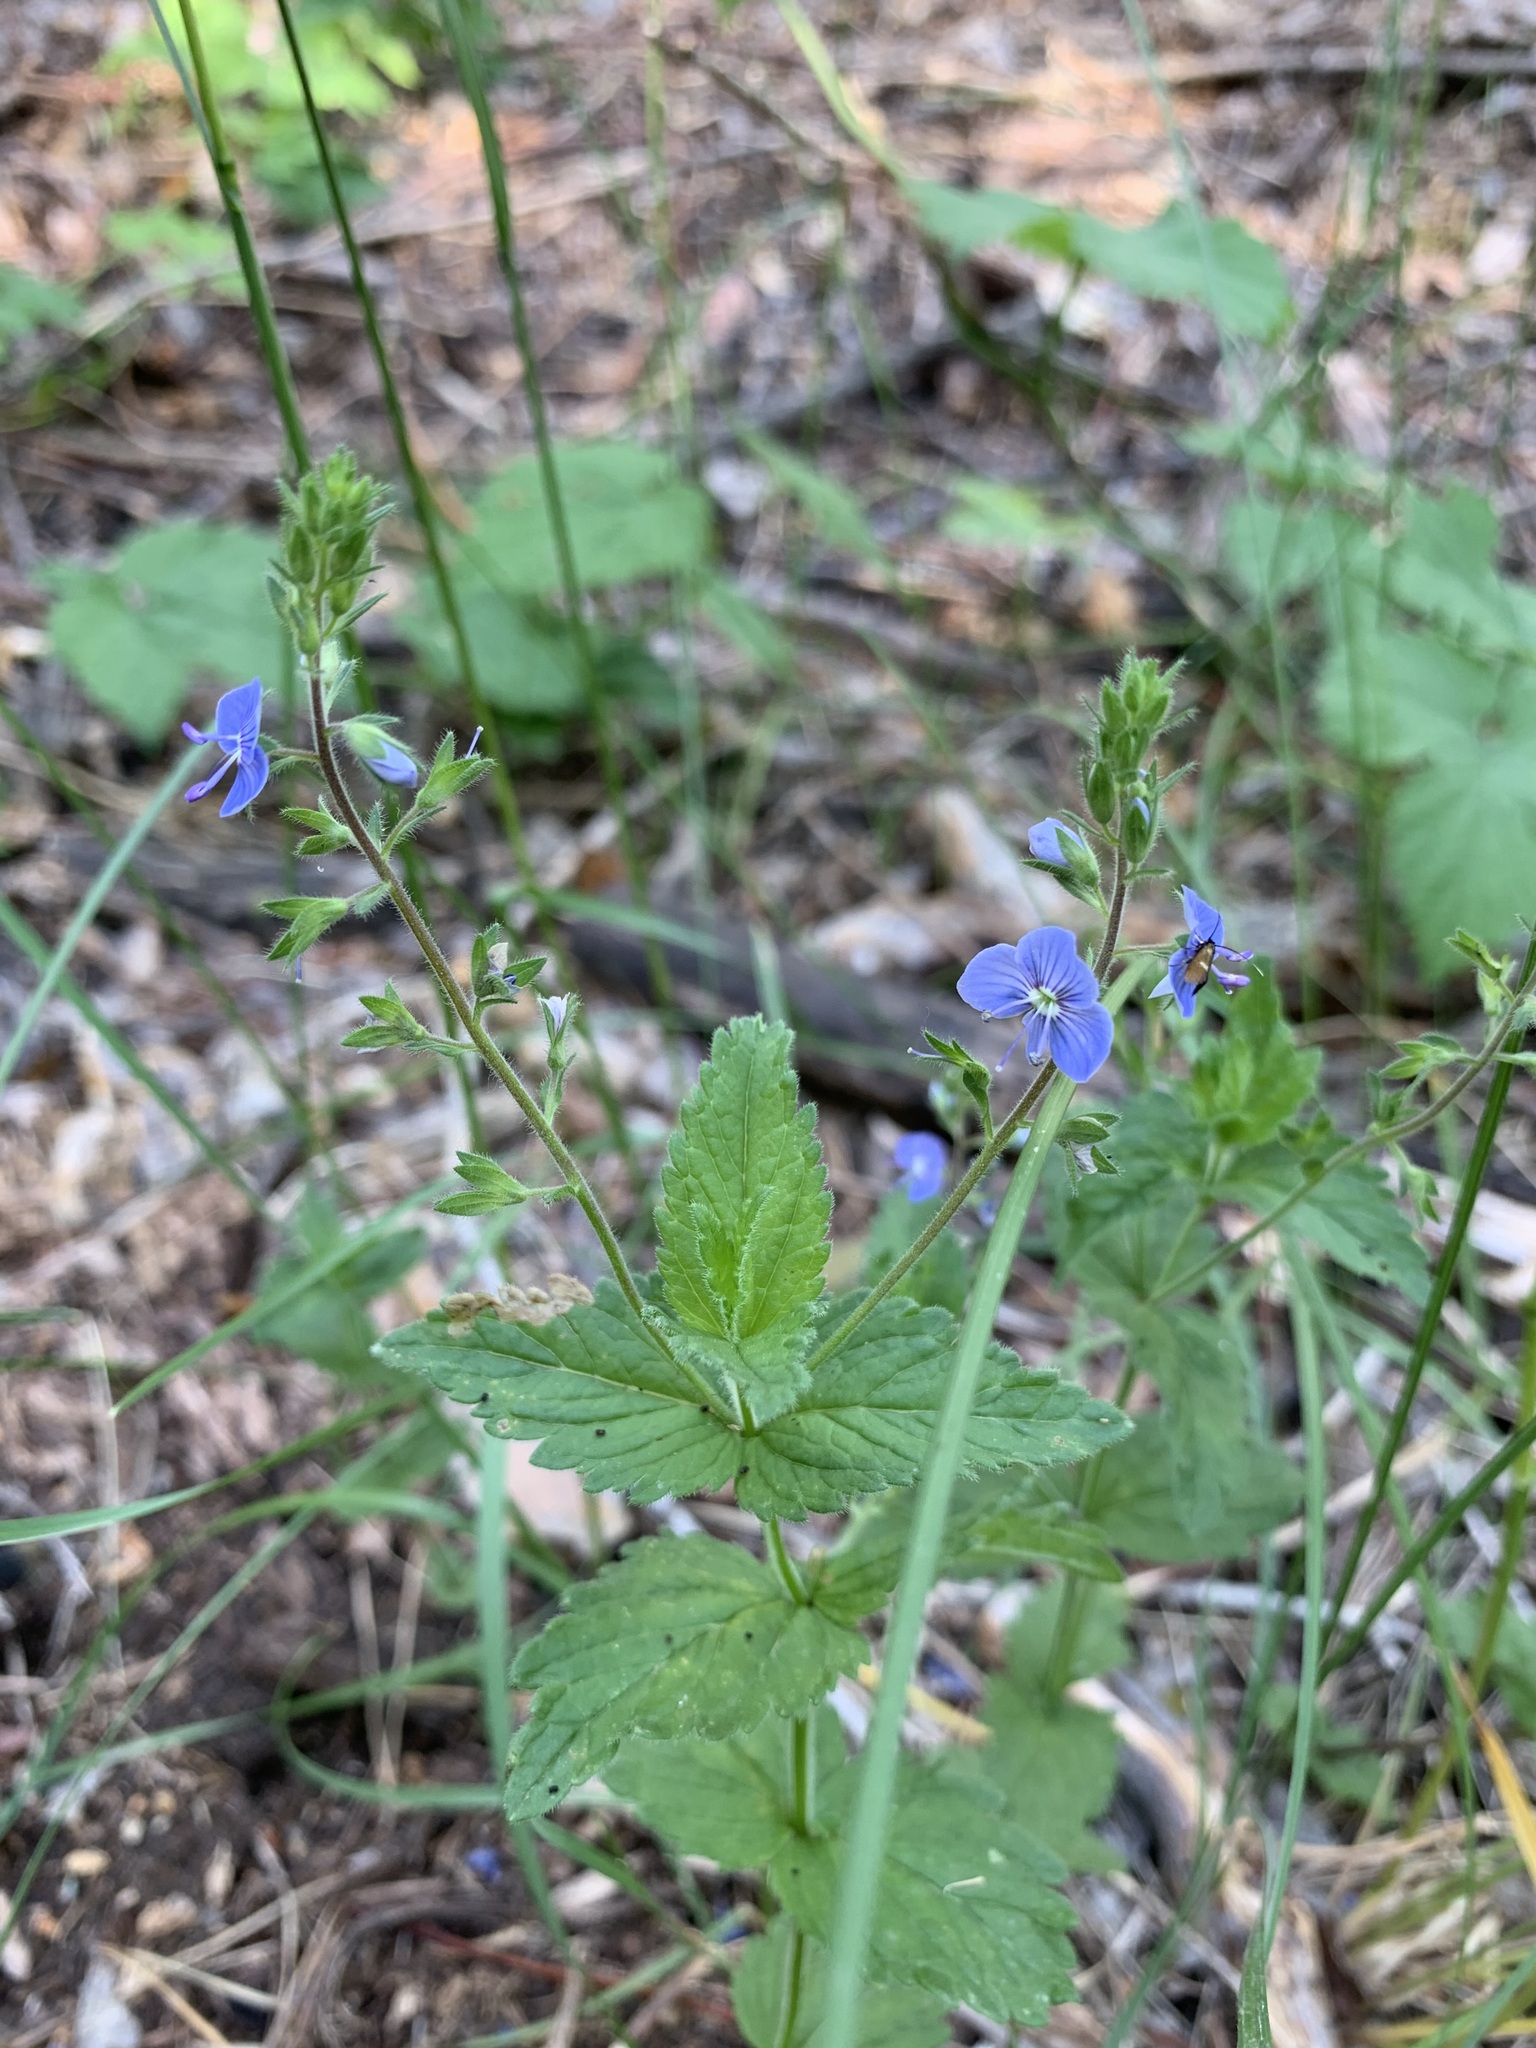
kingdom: Plantae
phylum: Tracheophyta
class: Magnoliopsida
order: Lamiales
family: Plantaginaceae
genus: Veronica
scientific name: Veronica chamaedrys
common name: Germander speedwell
